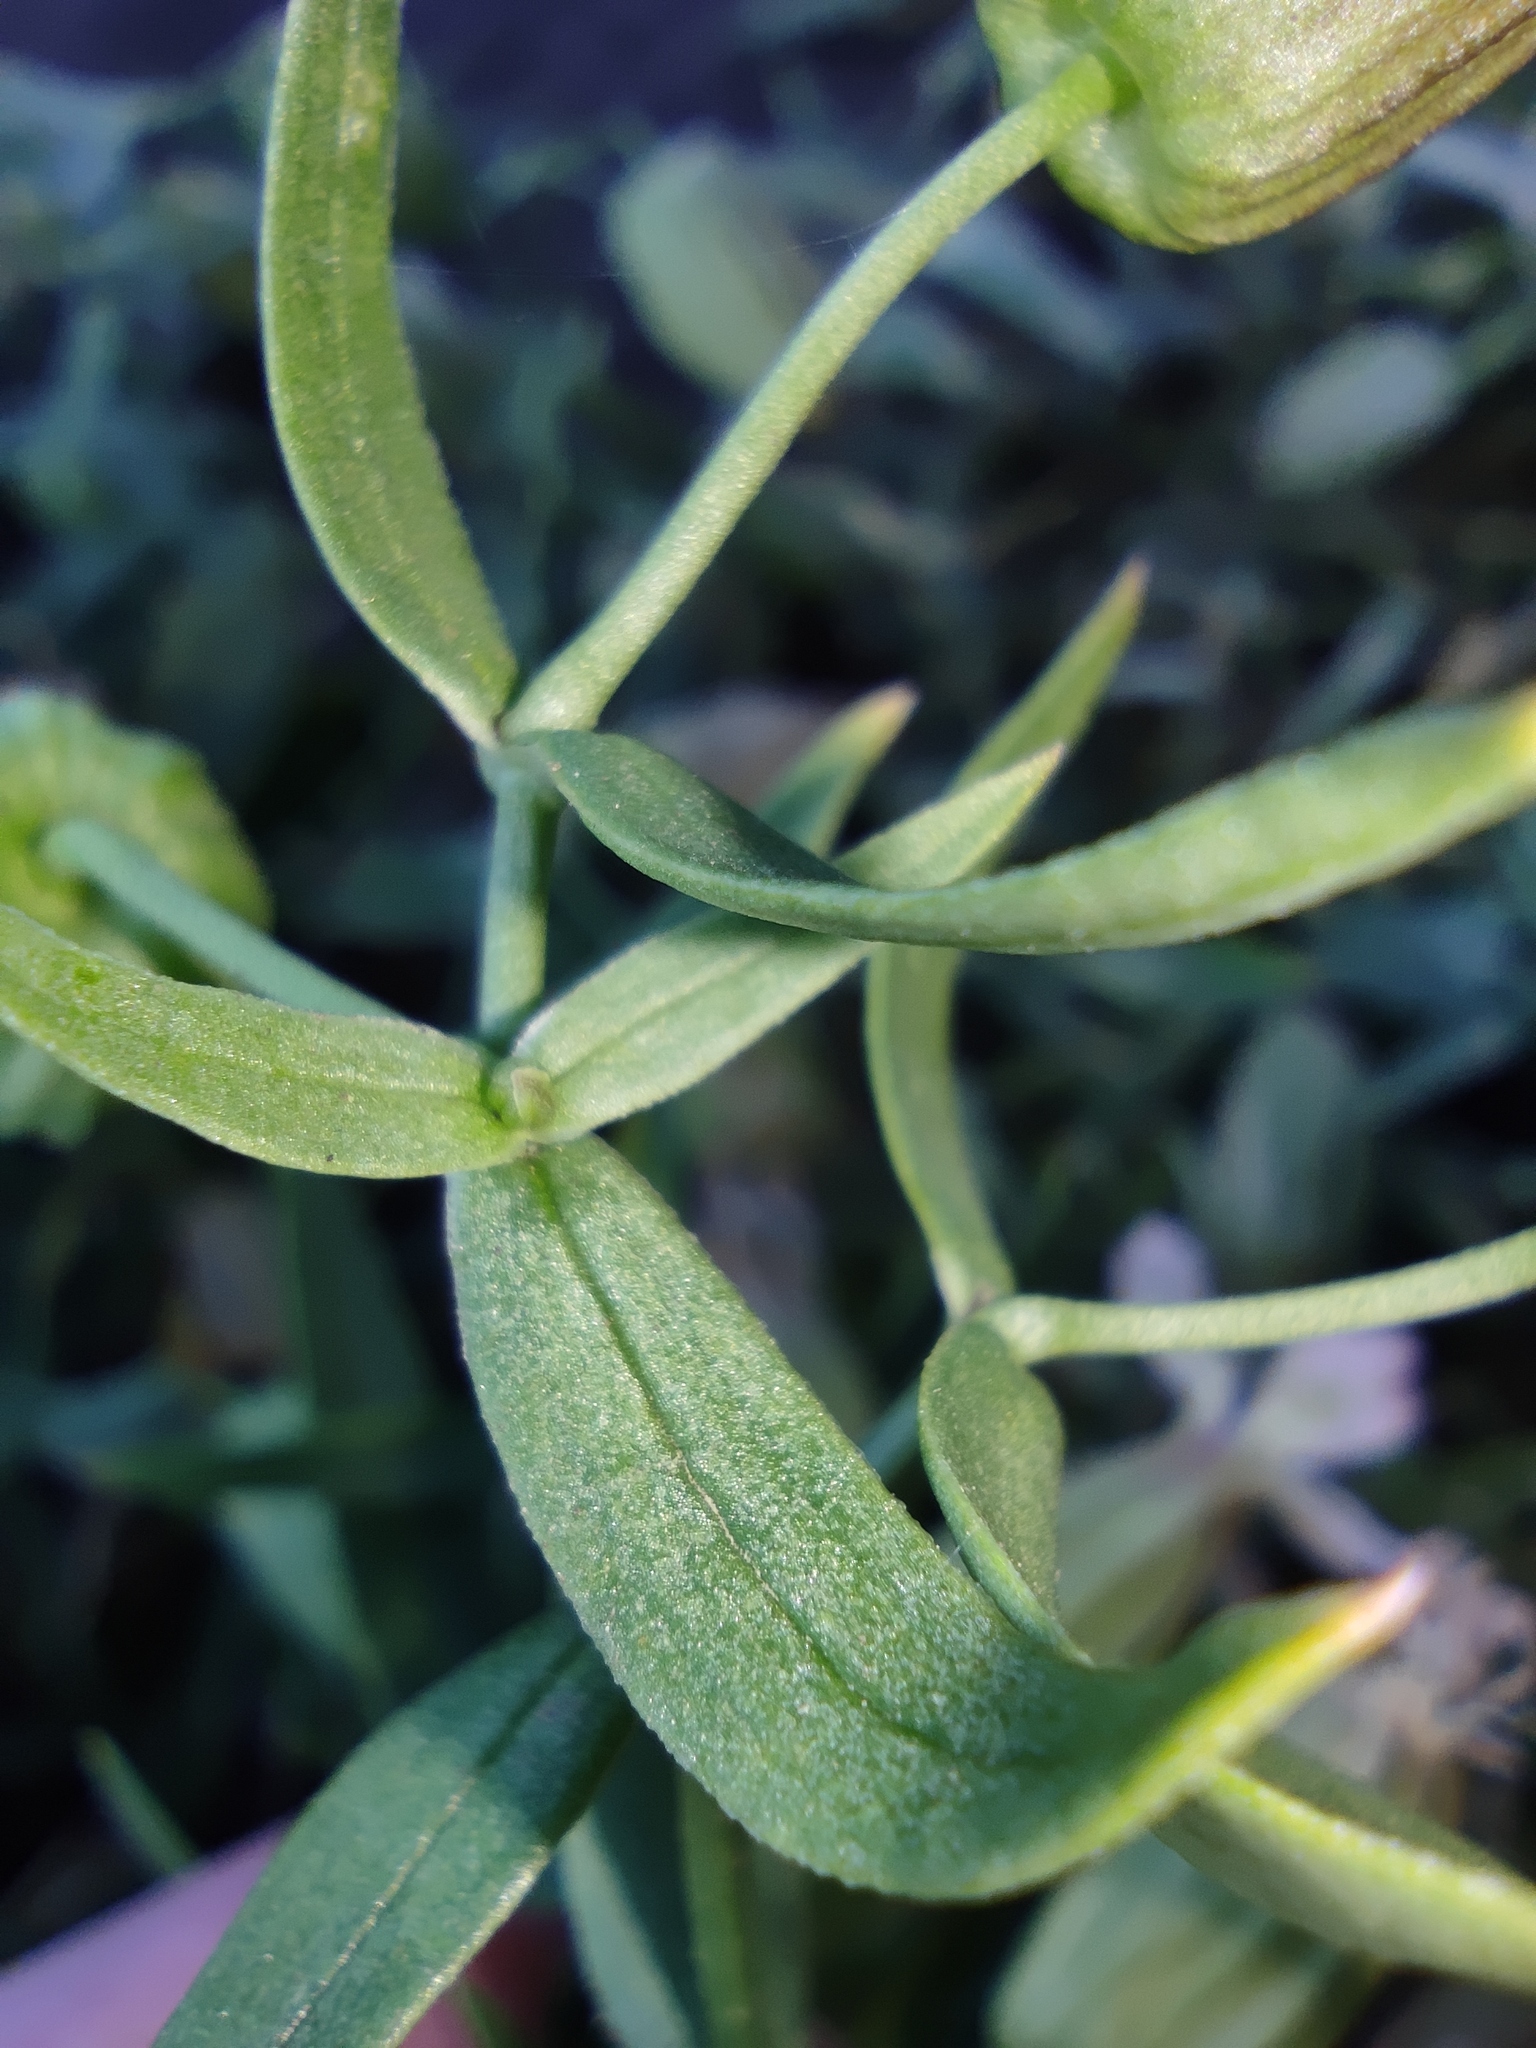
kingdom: Plantae
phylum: Tracheophyta
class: Magnoliopsida
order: Caryophyllales
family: Caryophyllaceae
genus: Silene
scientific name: Silene procumbens
